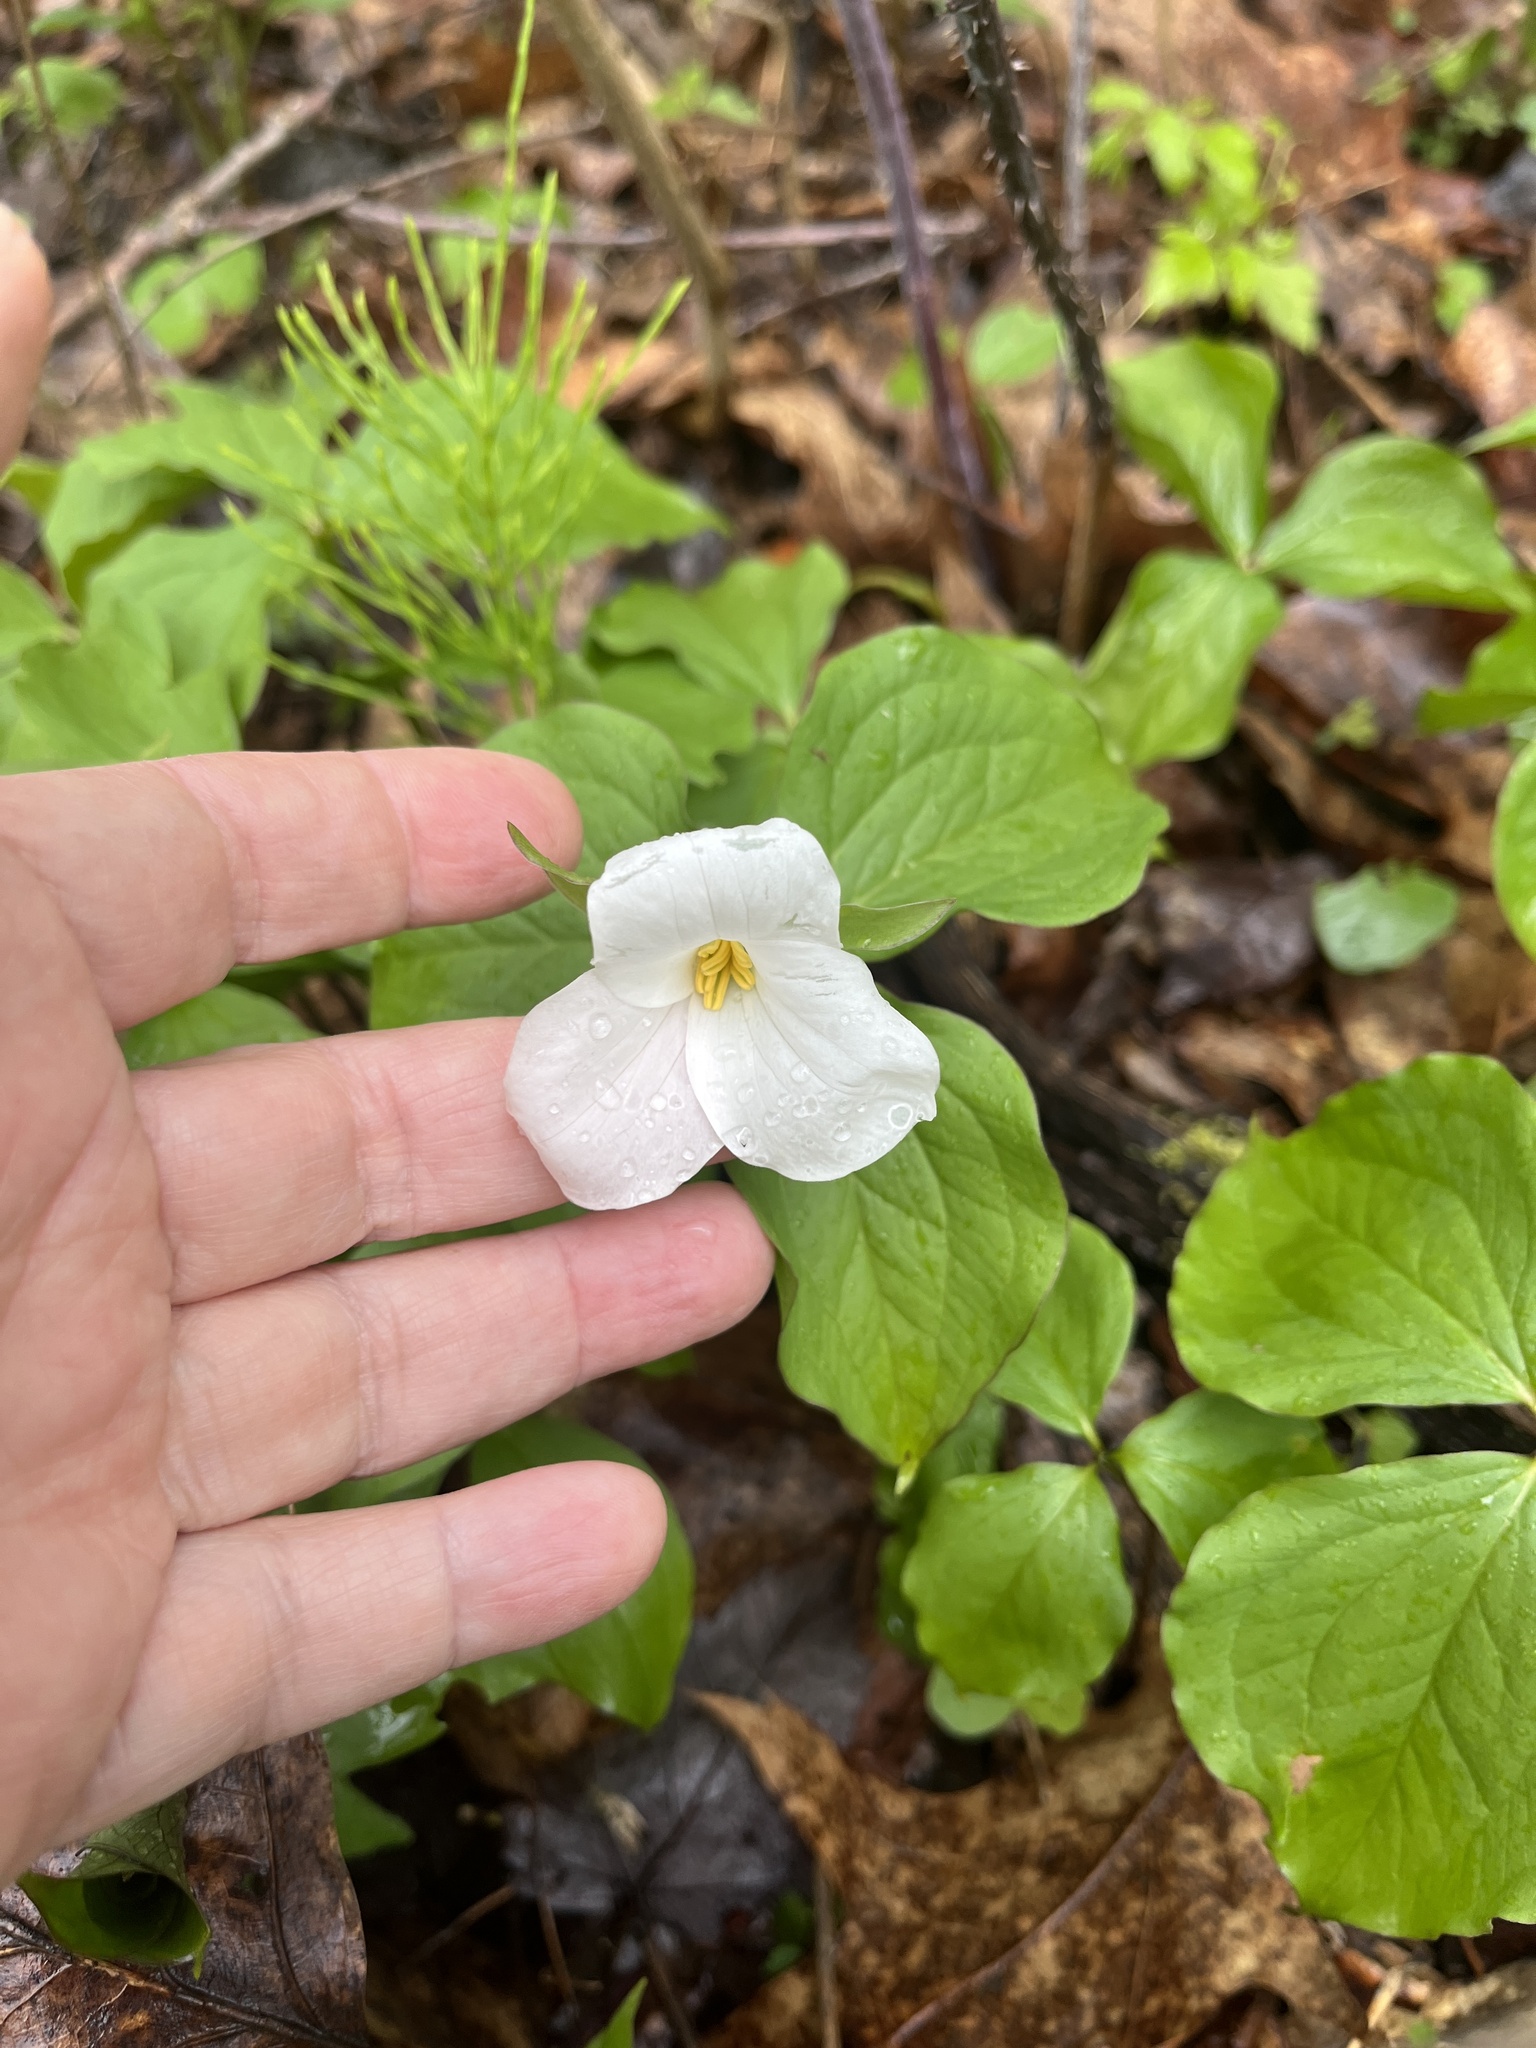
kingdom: Plantae
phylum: Tracheophyta
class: Liliopsida
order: Liliales
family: Melanthiaceae
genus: Trillium
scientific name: Trillium grandiflorum
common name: Great white trillium
